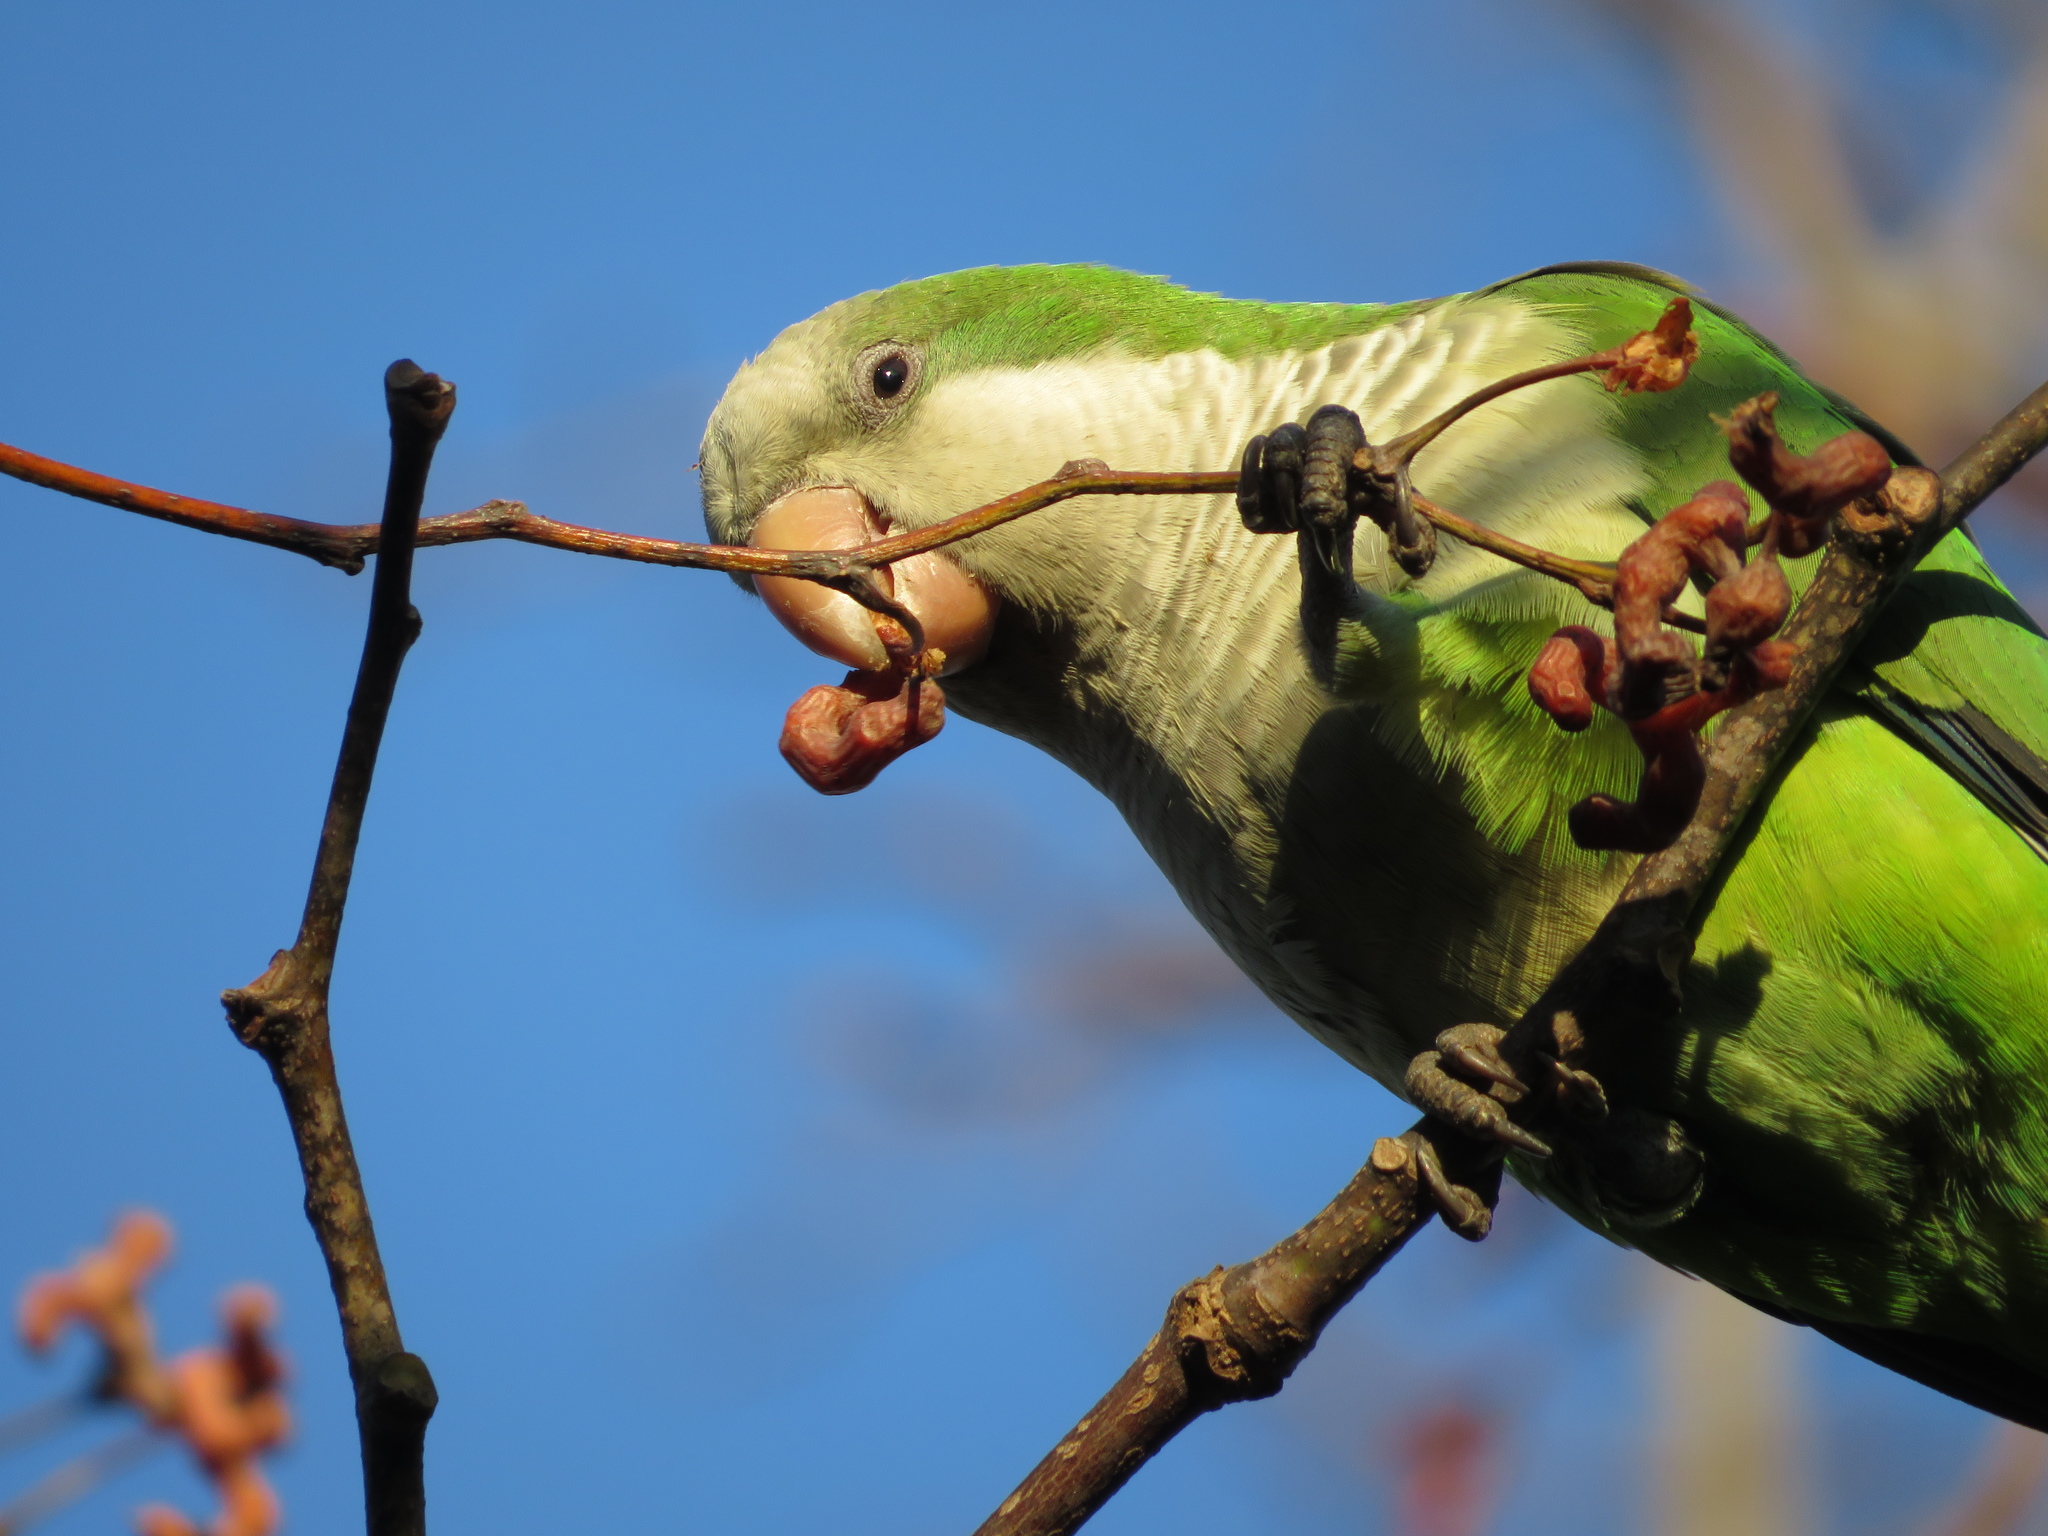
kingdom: Animalia
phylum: Chordata
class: Aves
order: Psittaciformes
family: Psittacidae
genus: Myiopsitta
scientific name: Myiopsitta monachus
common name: Monk parakeet
